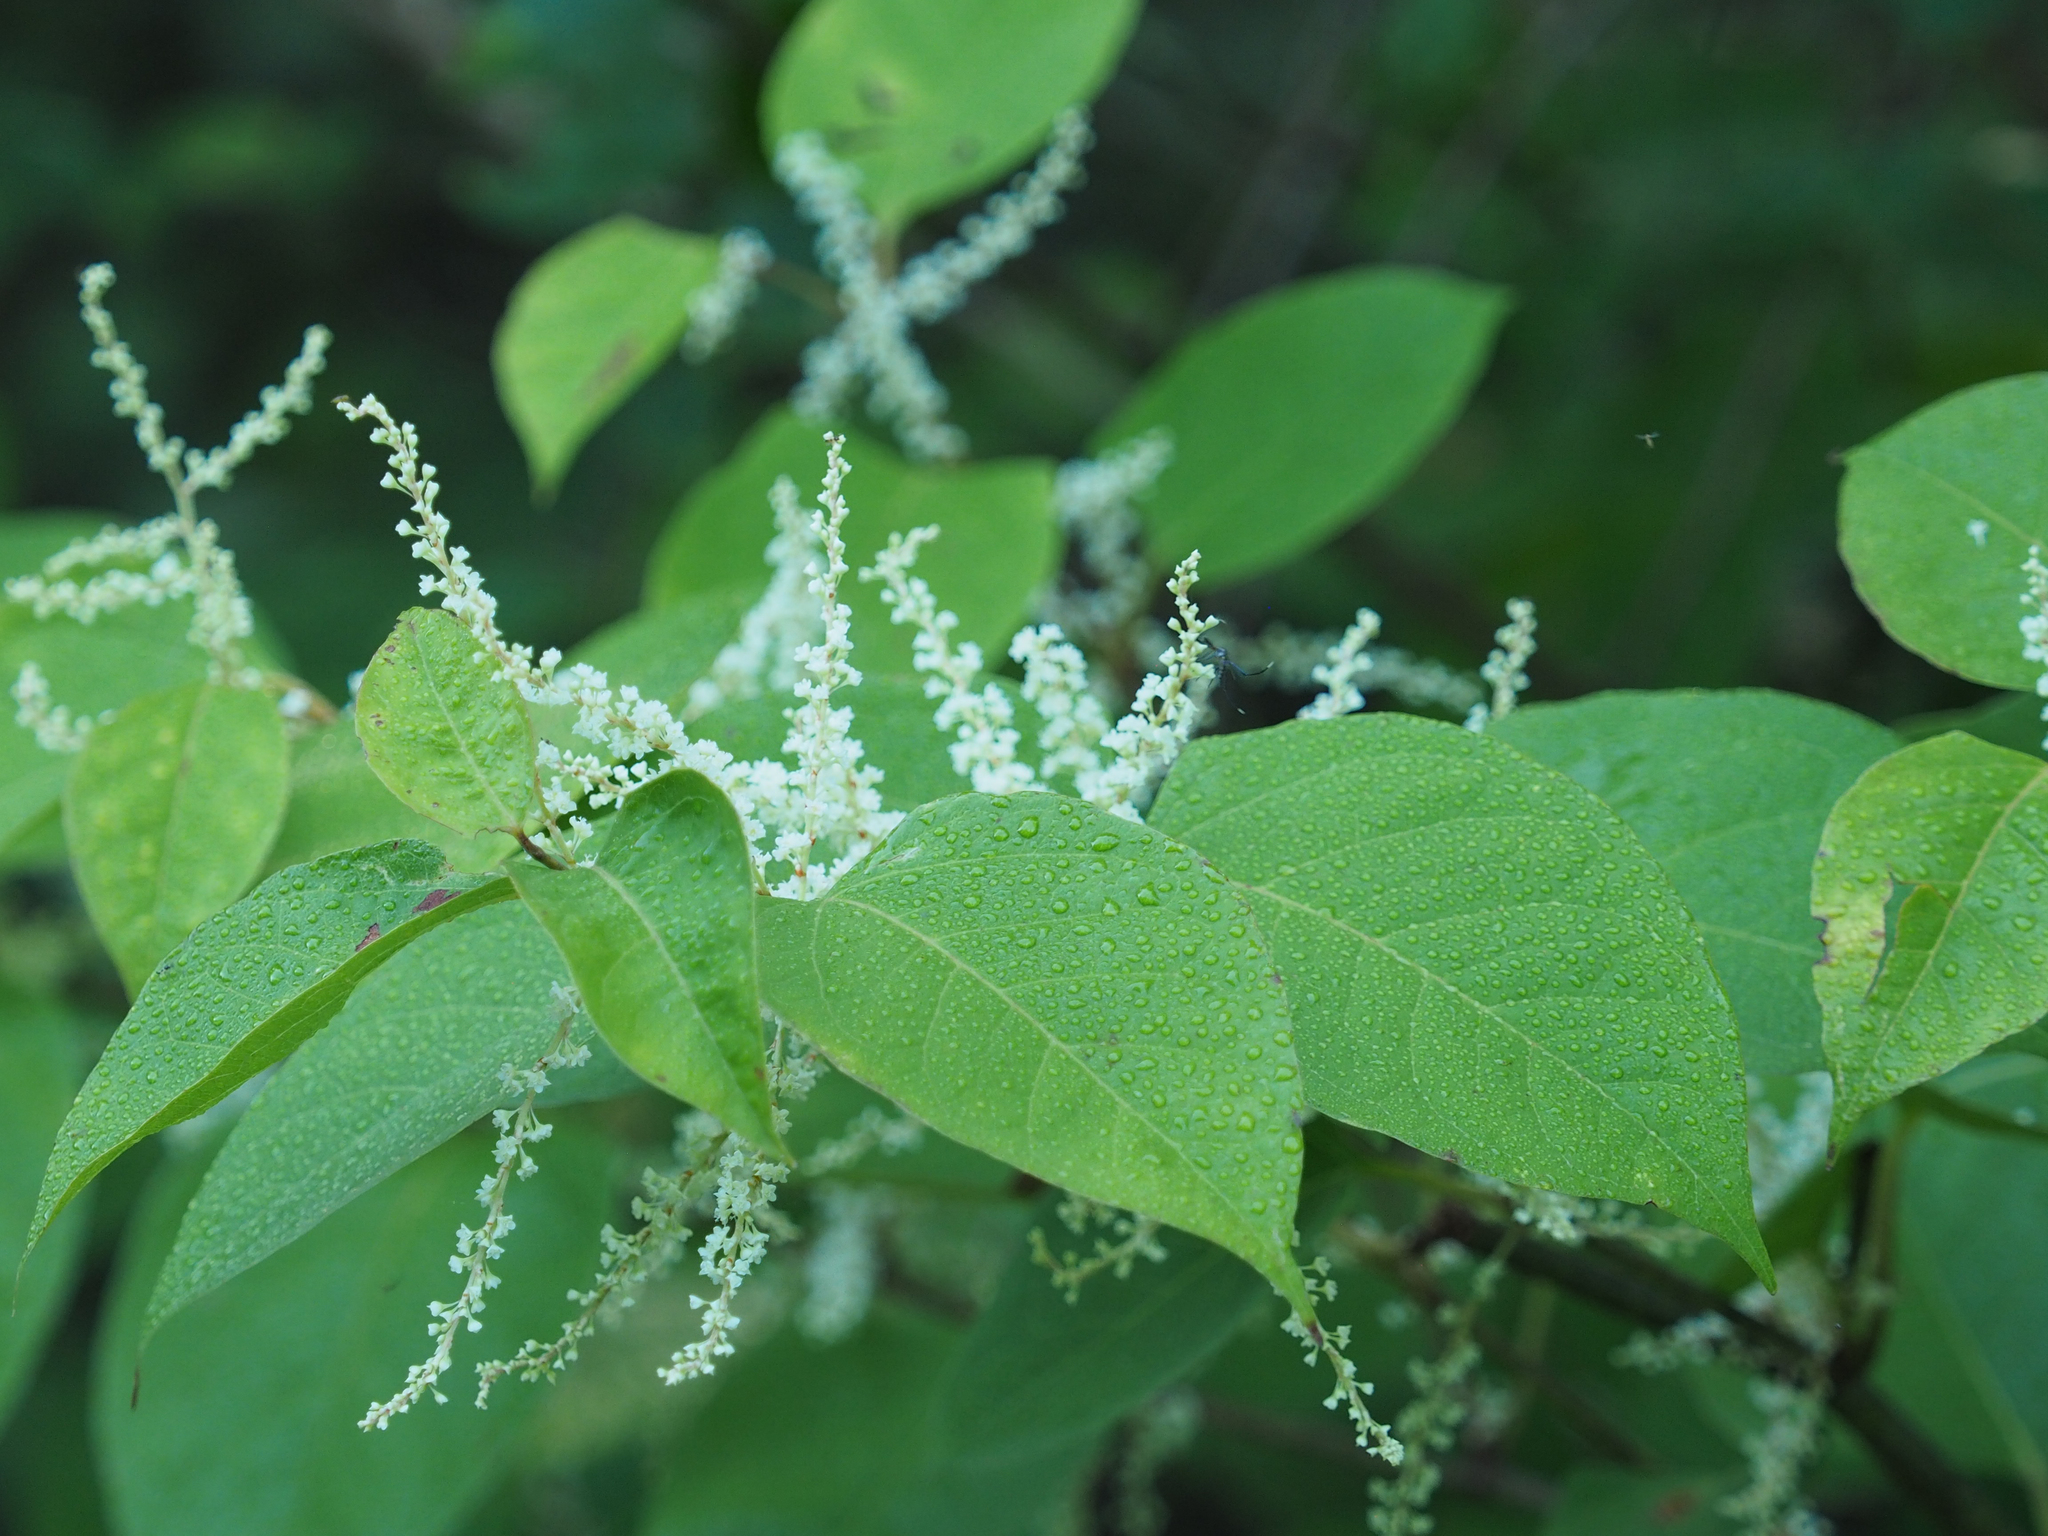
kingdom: Plantae
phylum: Tracheophyta
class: Magnoliopsida
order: Caryophyllales
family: Polygonaceae
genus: Reynoutria
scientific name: Reynoutria japonica
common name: Japanese knotweed
